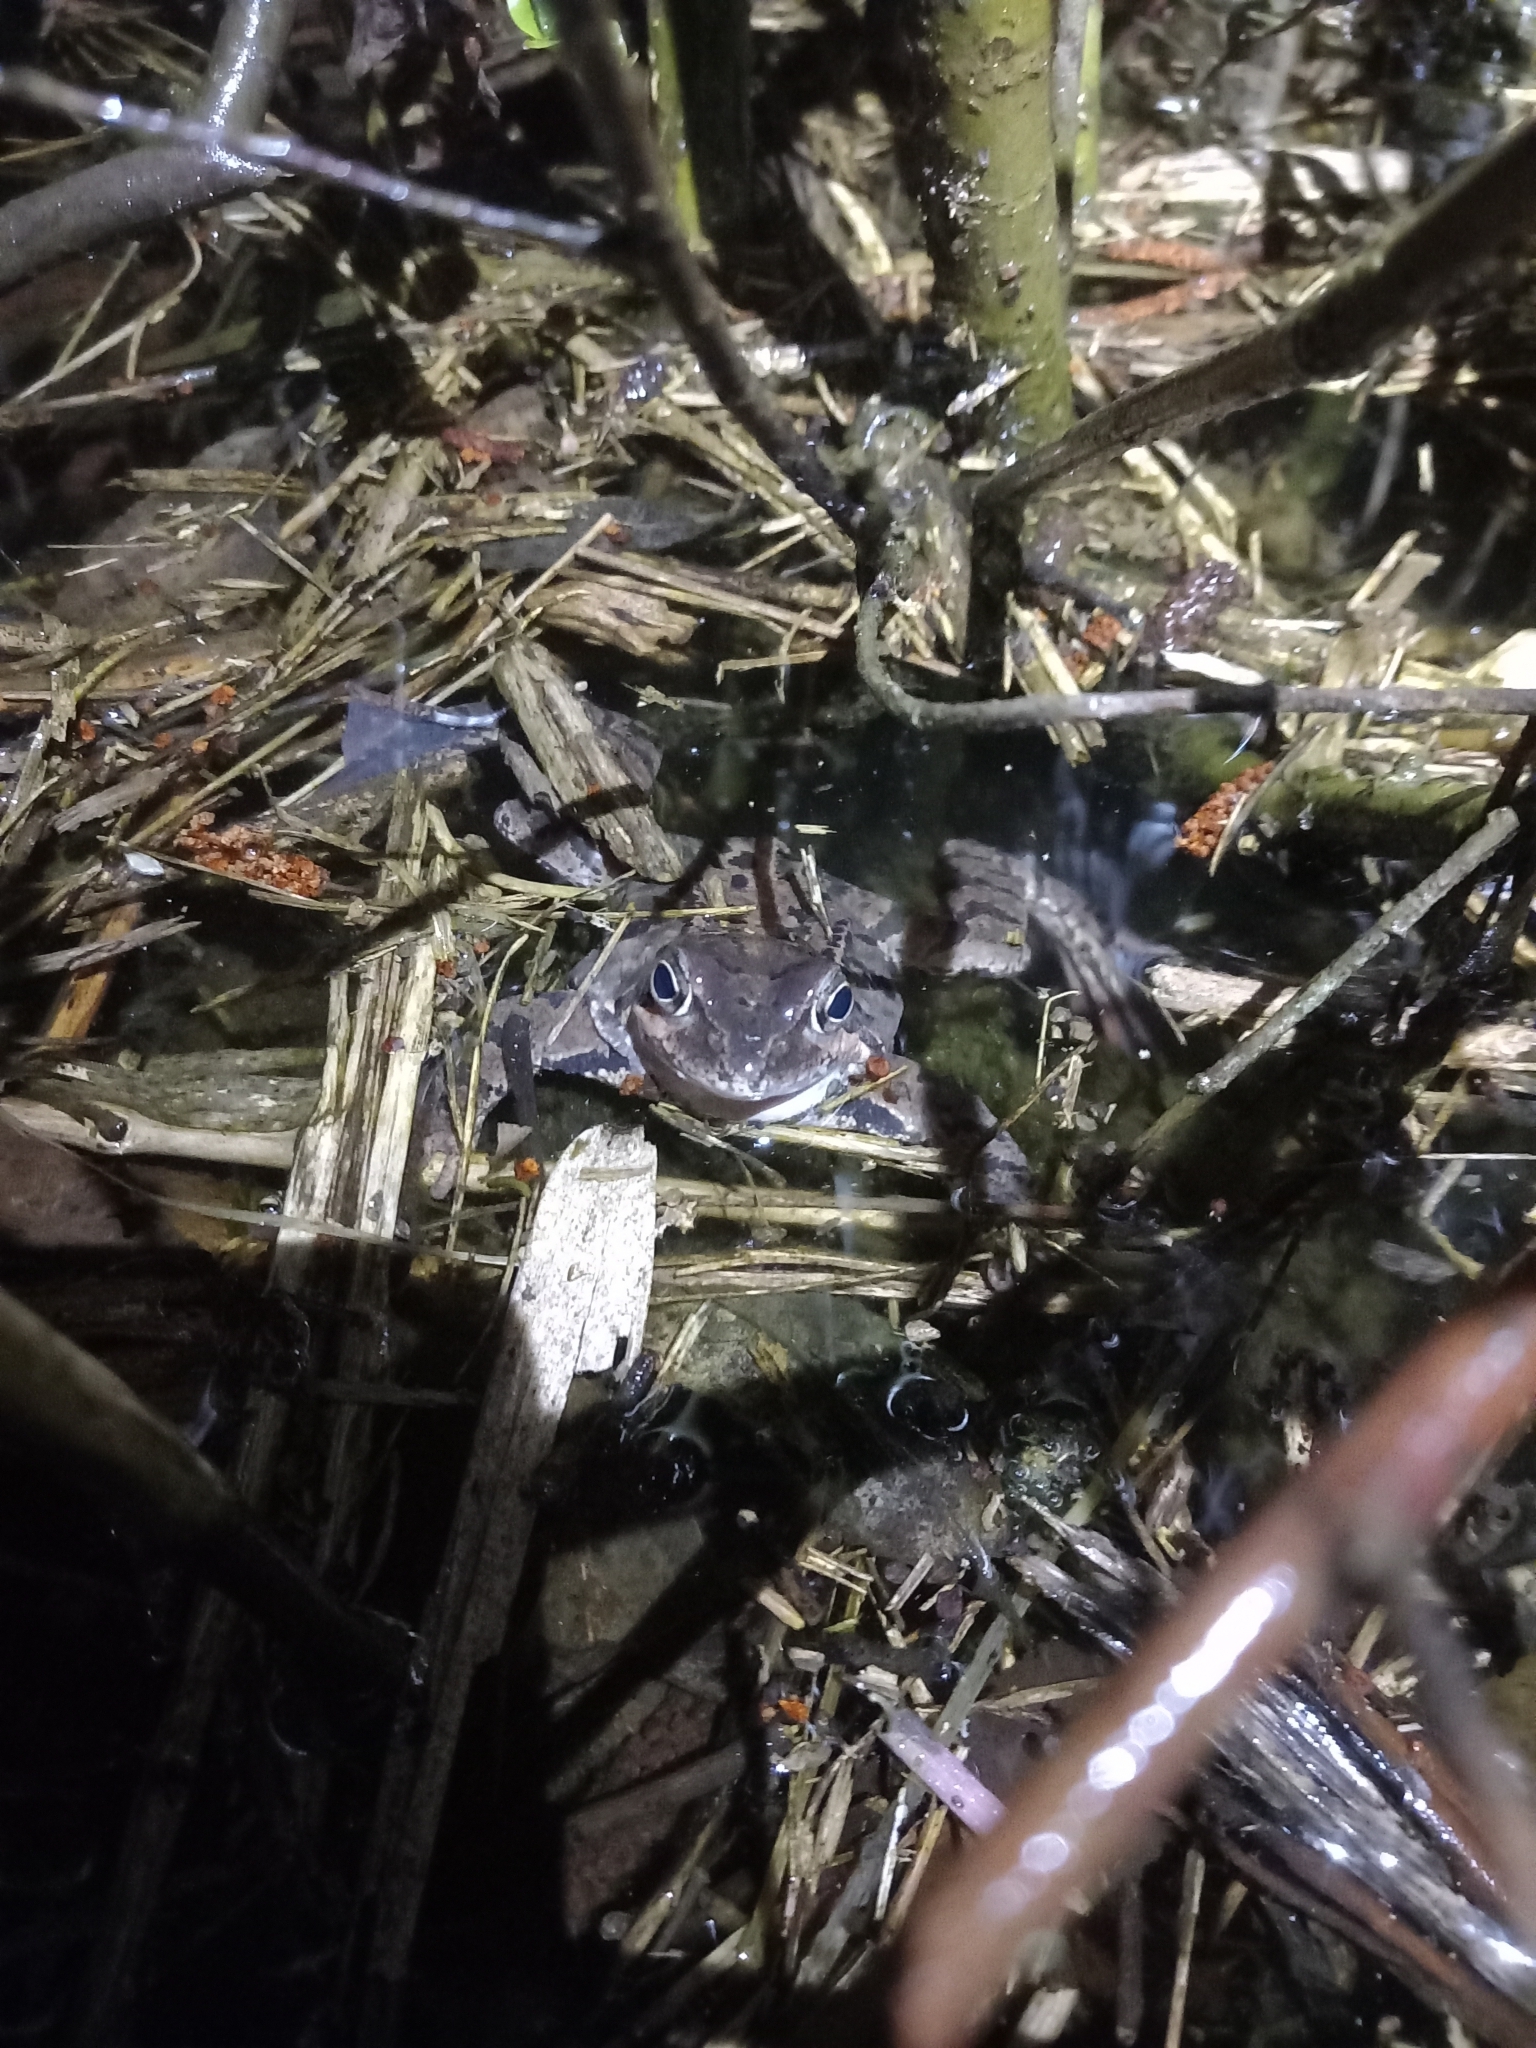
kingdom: Animalia
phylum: Chordata
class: Amphibia
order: Anura
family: Ranidae
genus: Rana
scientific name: Rana temporaria
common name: Common frog
